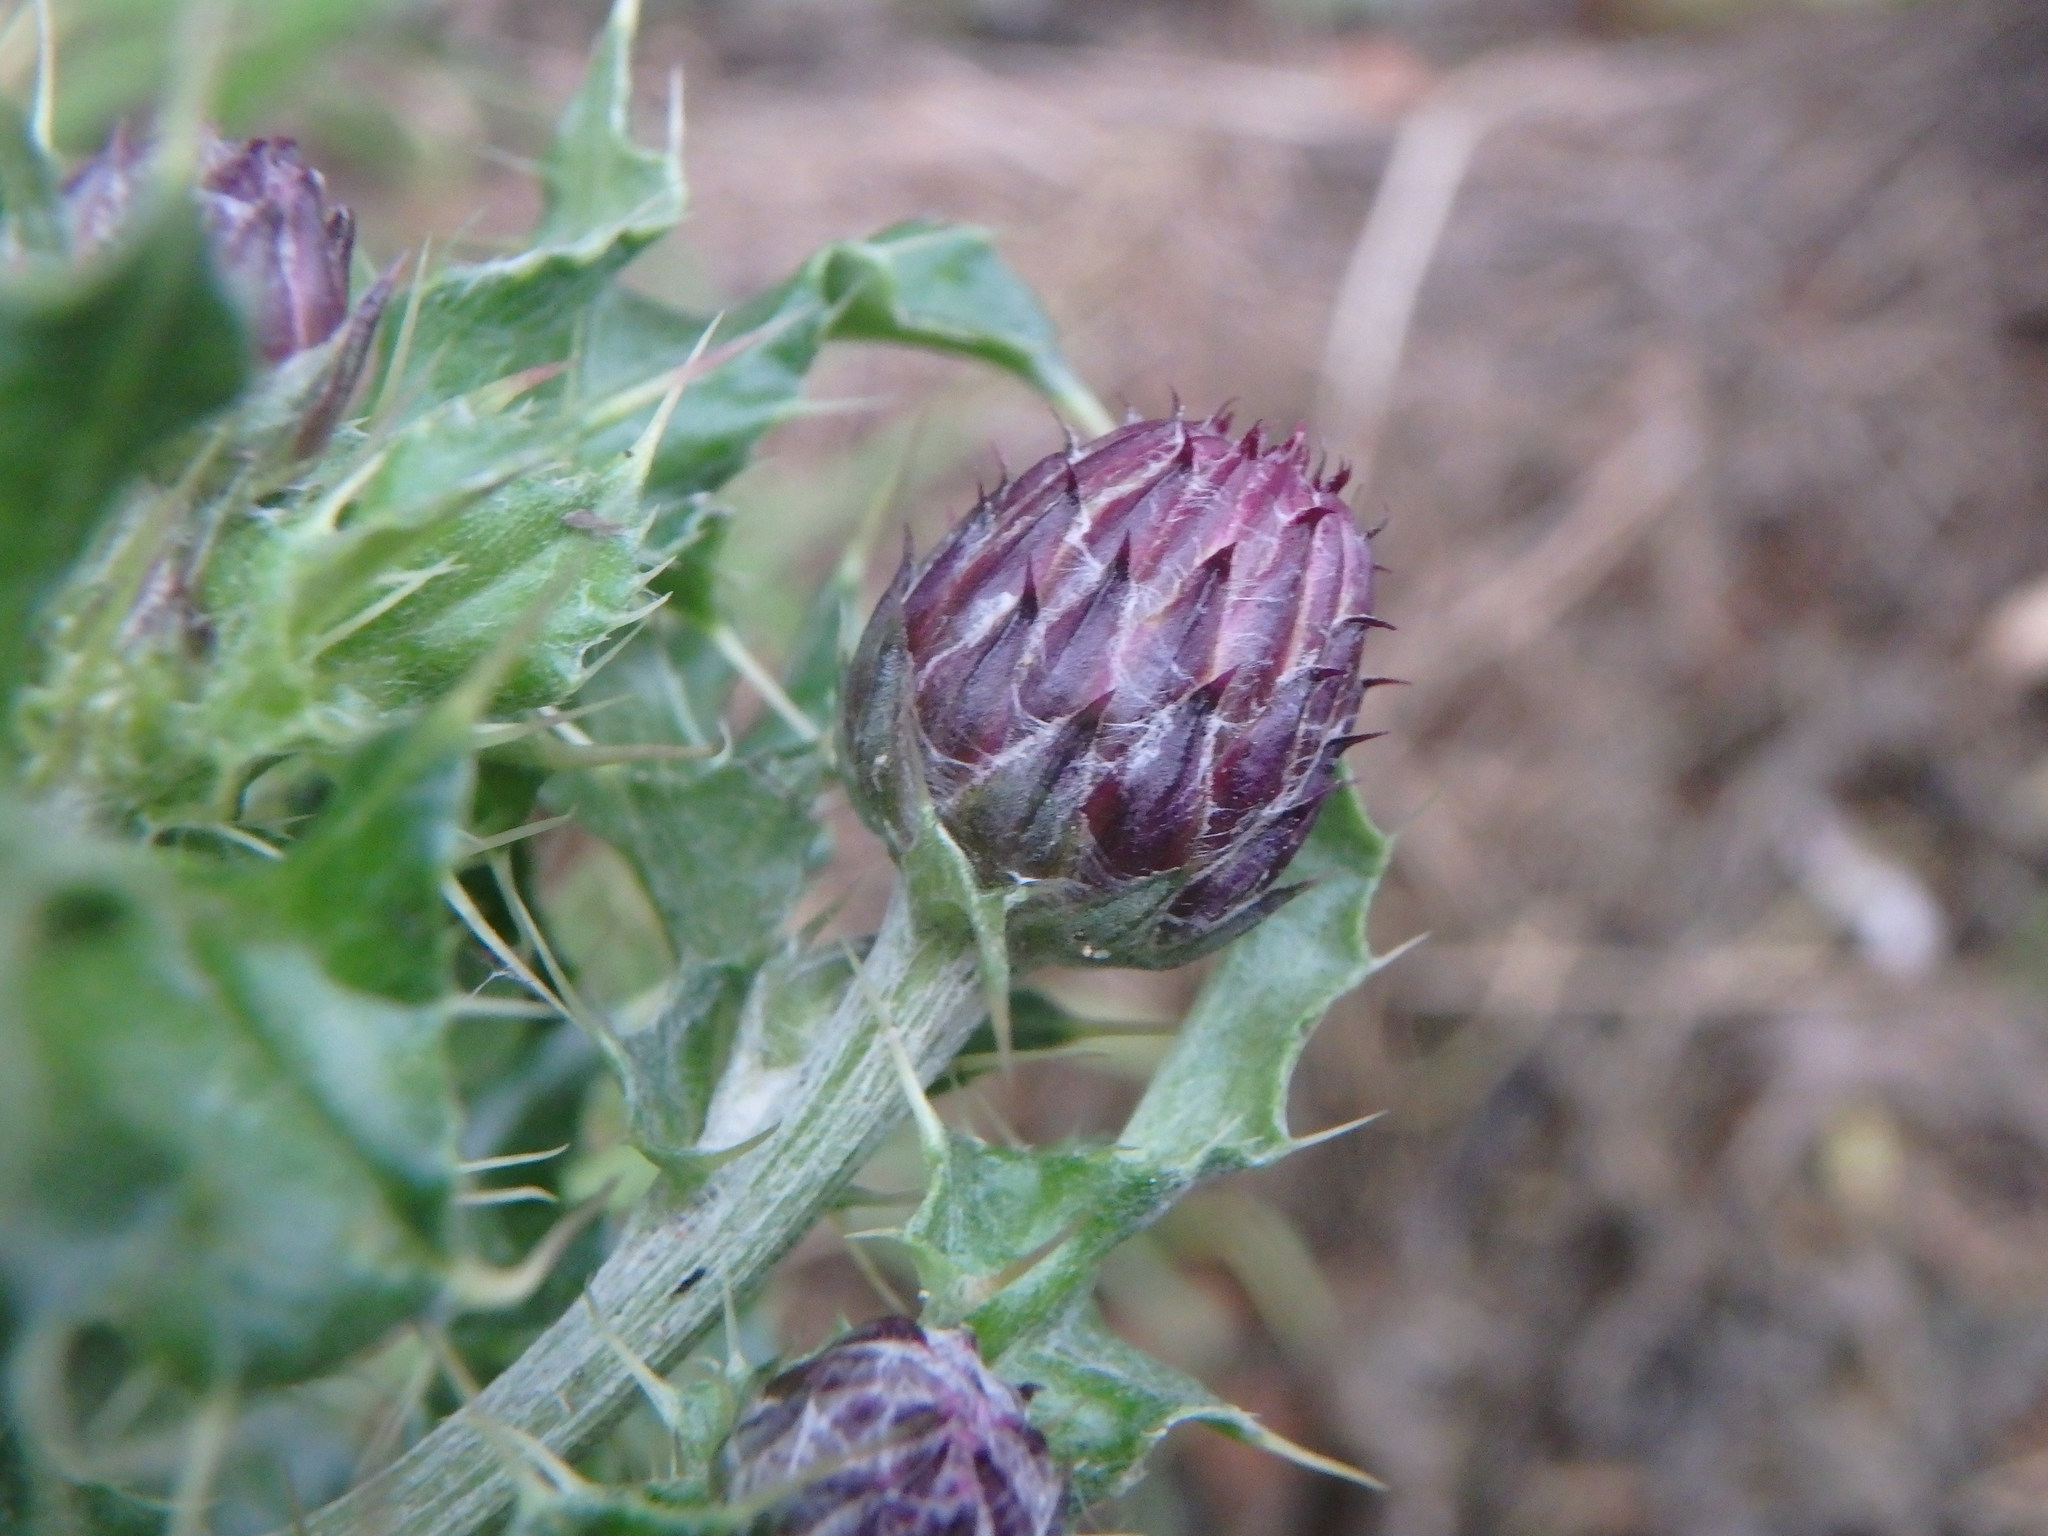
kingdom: Plantae
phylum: Tracheophyta
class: Magnoliopsida
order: Asterales
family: Asteraceae
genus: Cirsium
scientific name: Cirsium arvense
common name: Creeping thistle
